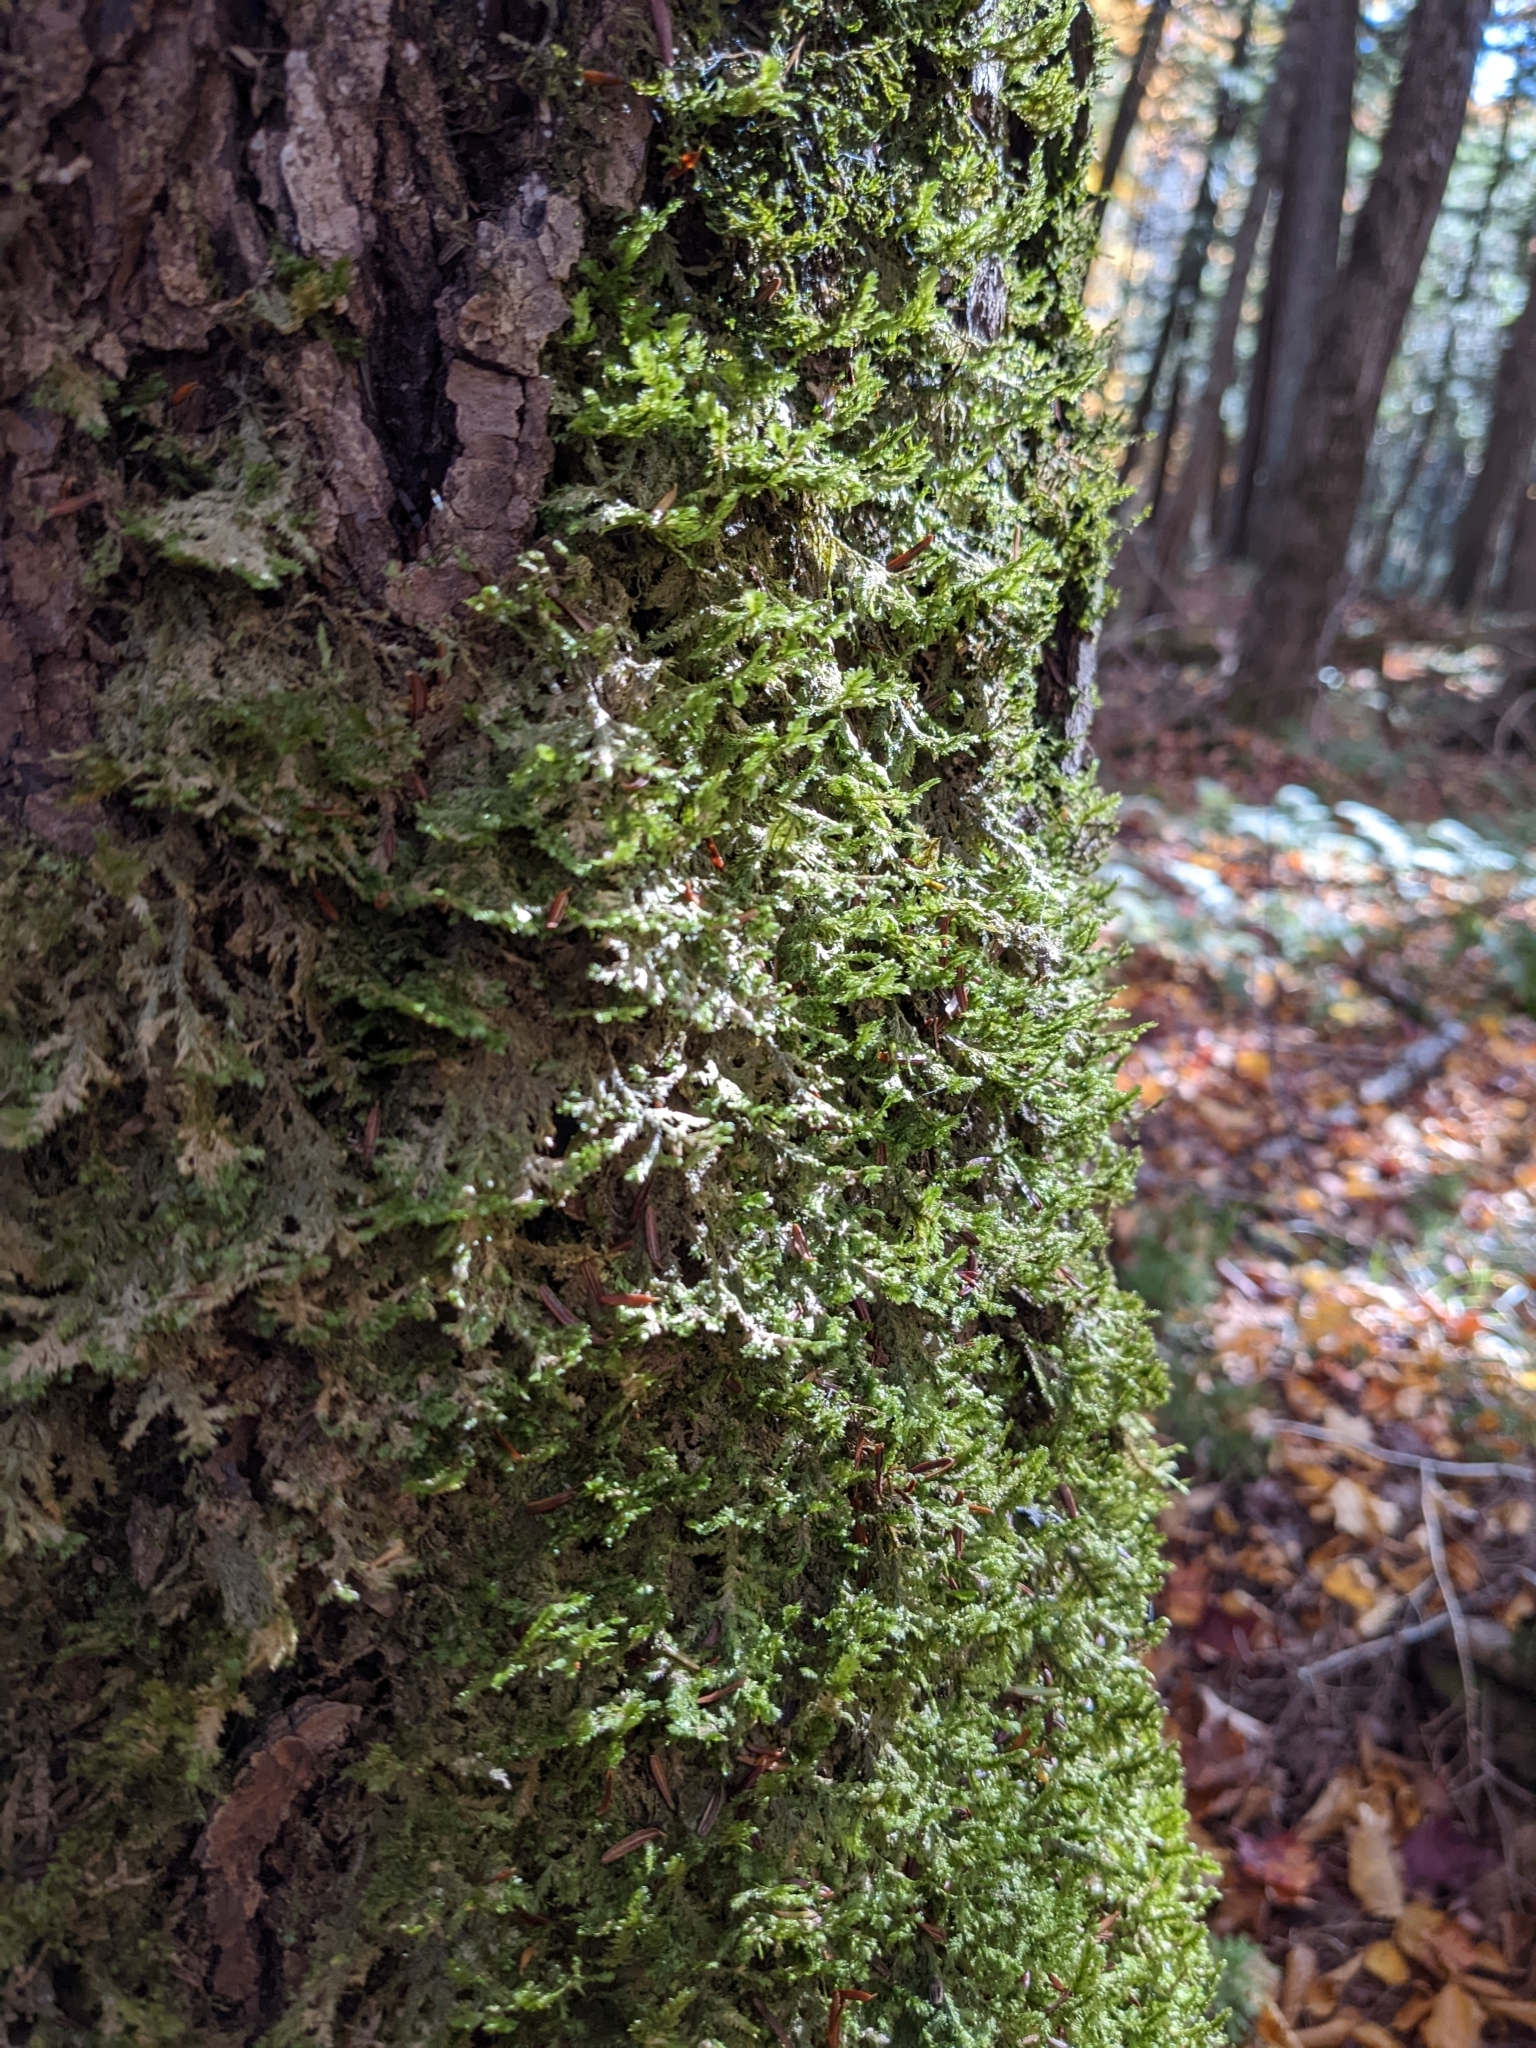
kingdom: Plantae
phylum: Bryophyta
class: Bryopsida
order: Hypnales
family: Neckeraceae
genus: Neckera
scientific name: Neckera pennata
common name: Feathery neckera
